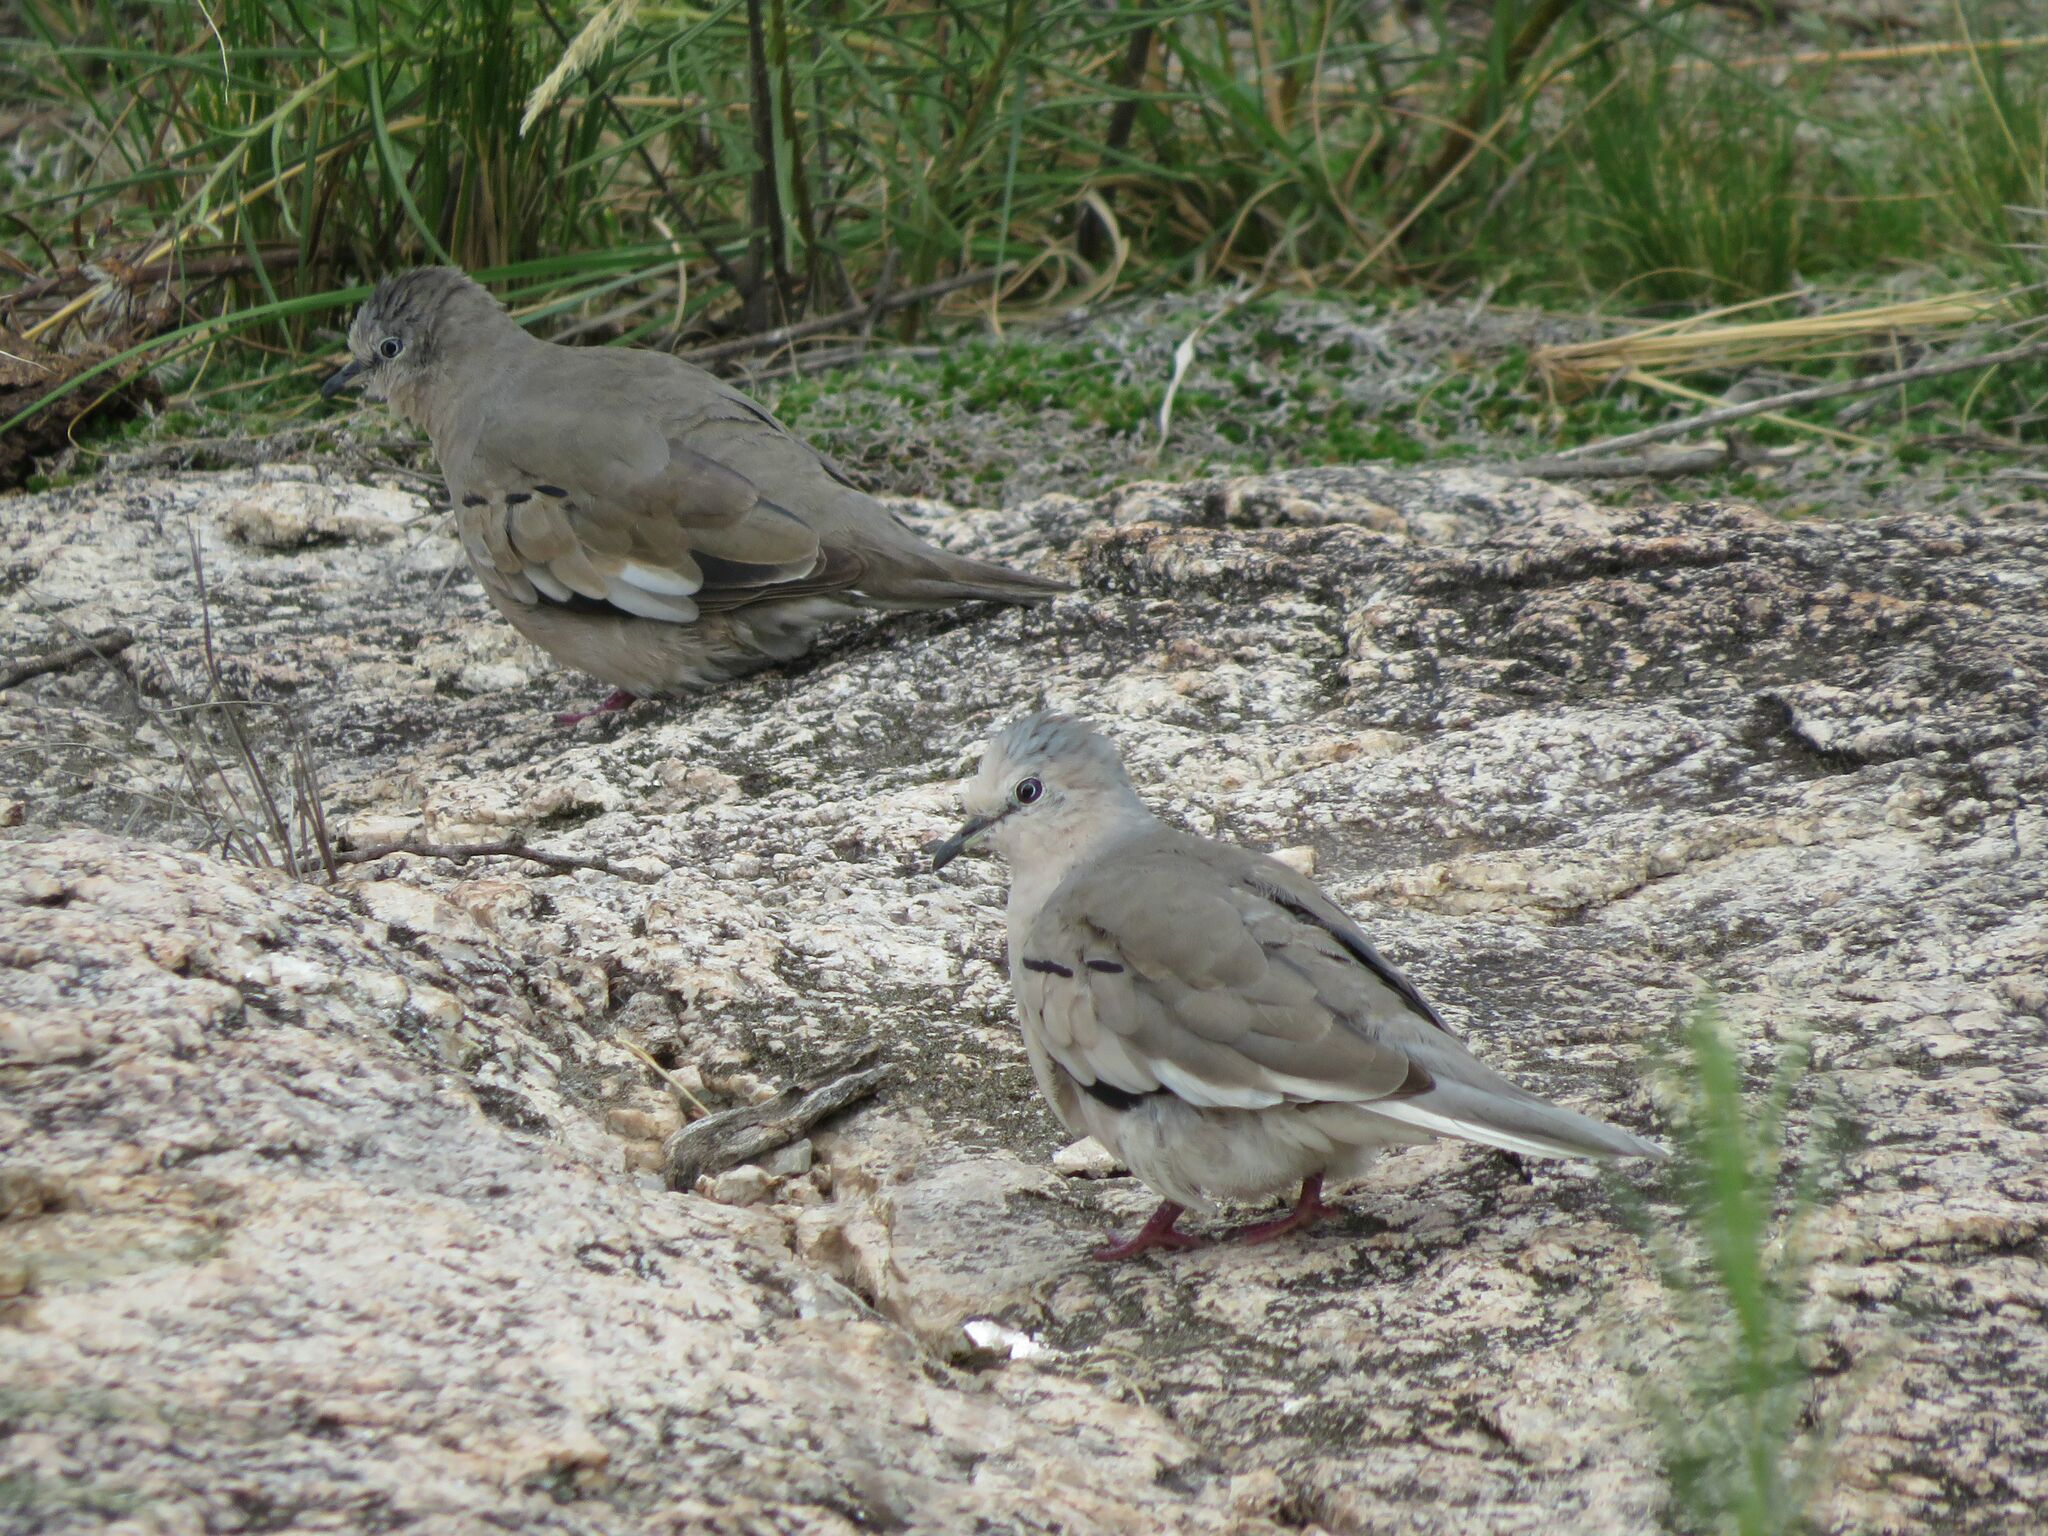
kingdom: Animalia
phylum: Chordata
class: Aves
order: Columbiformes
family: Columbidae
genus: Columbina
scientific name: Columbina picui
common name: Picui ground dove
